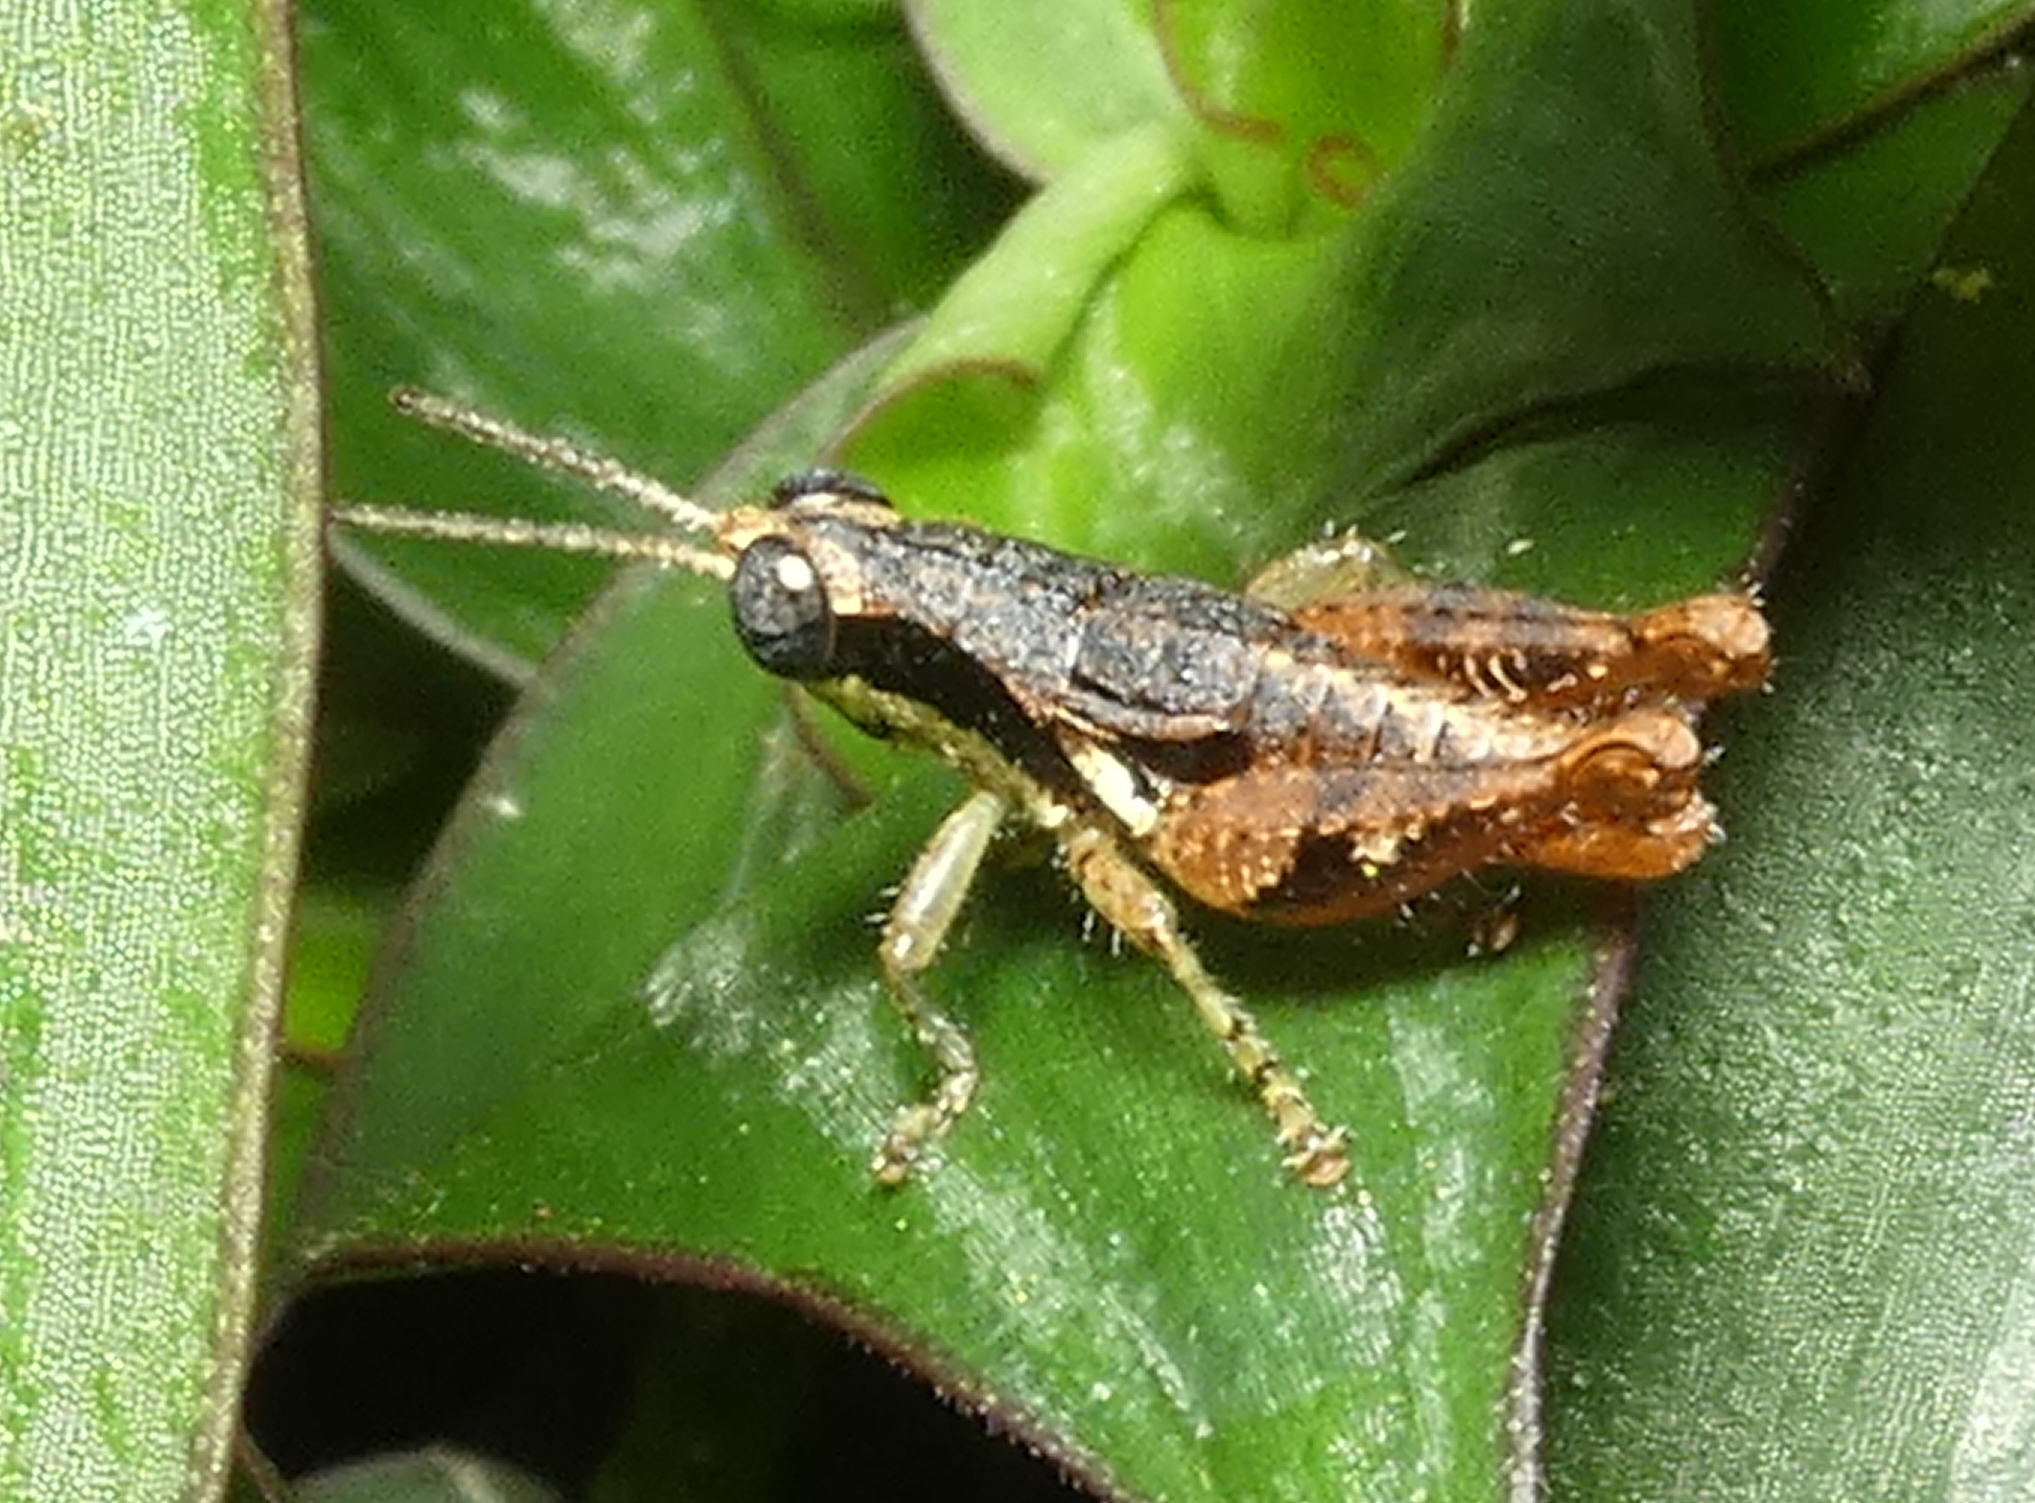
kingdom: Animalia
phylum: Arthropoda
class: Insecta
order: Orthoptera
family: Acrididae
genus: Eujivarus
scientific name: Eujivarus meridionalis
